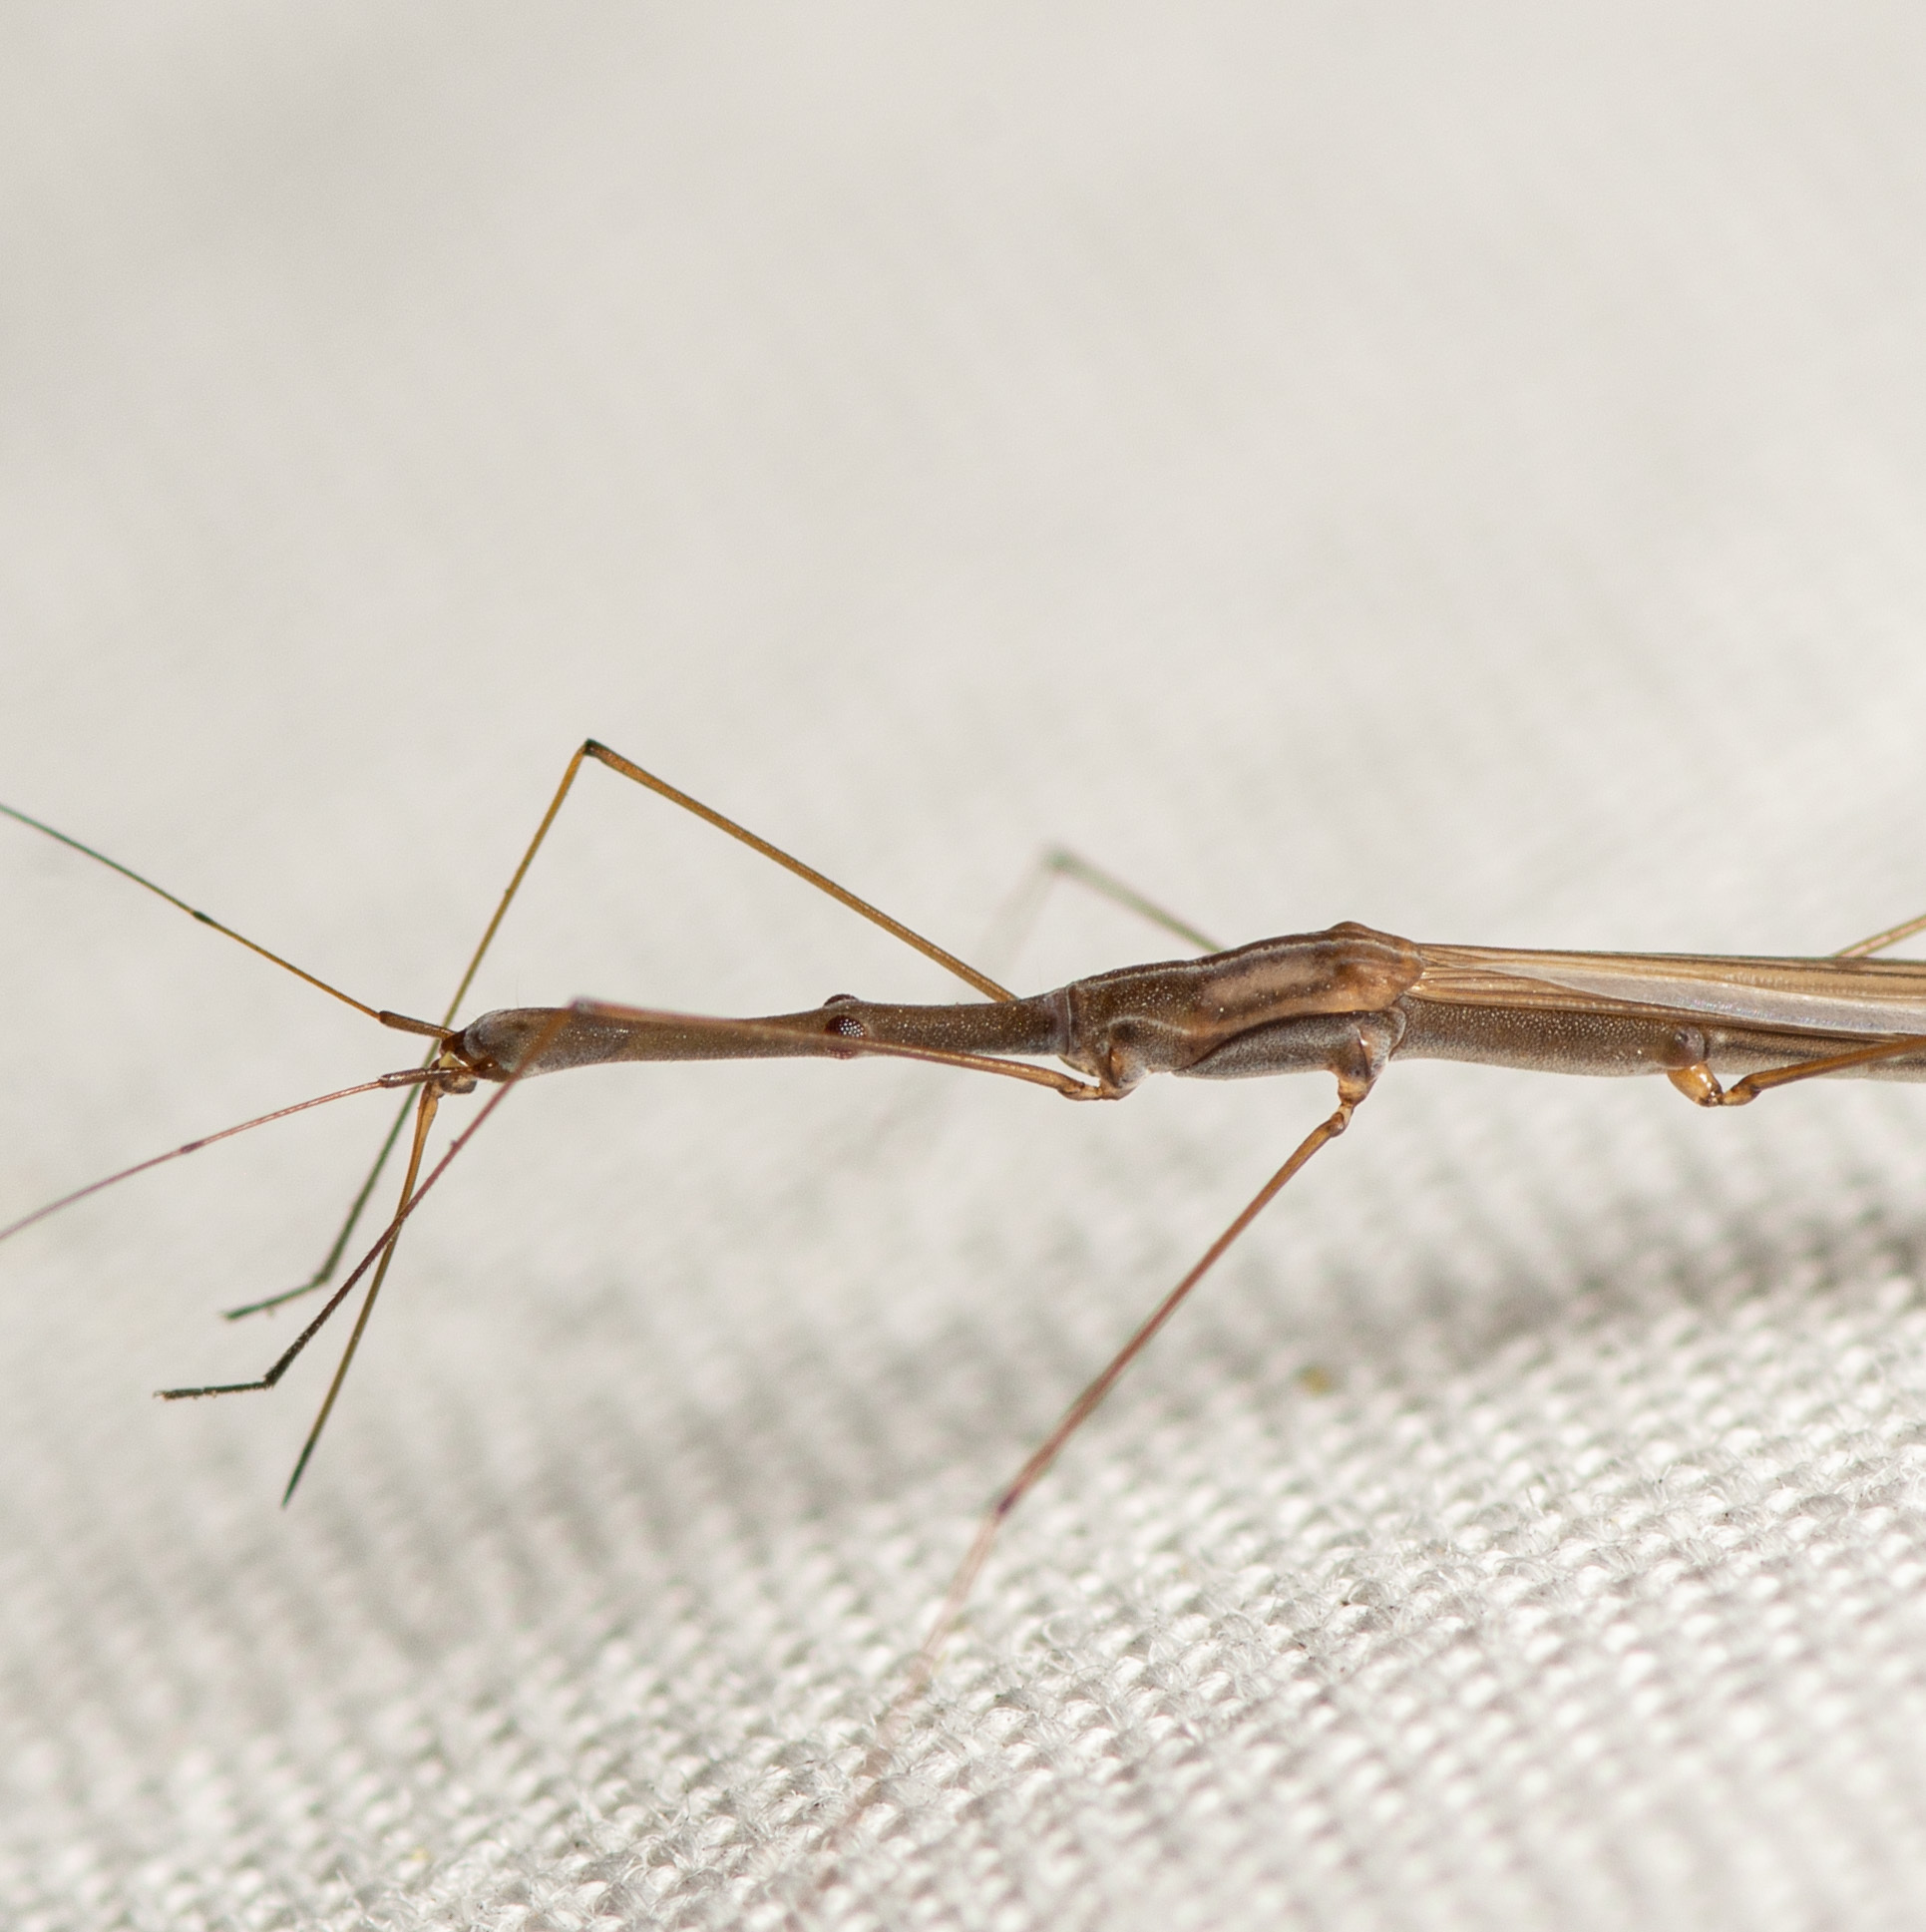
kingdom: Animalia
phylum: Arthropoda
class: Insecta
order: Hemiptera
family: Hydrometridae
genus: Hydrometra
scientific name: Hydrometra australis
